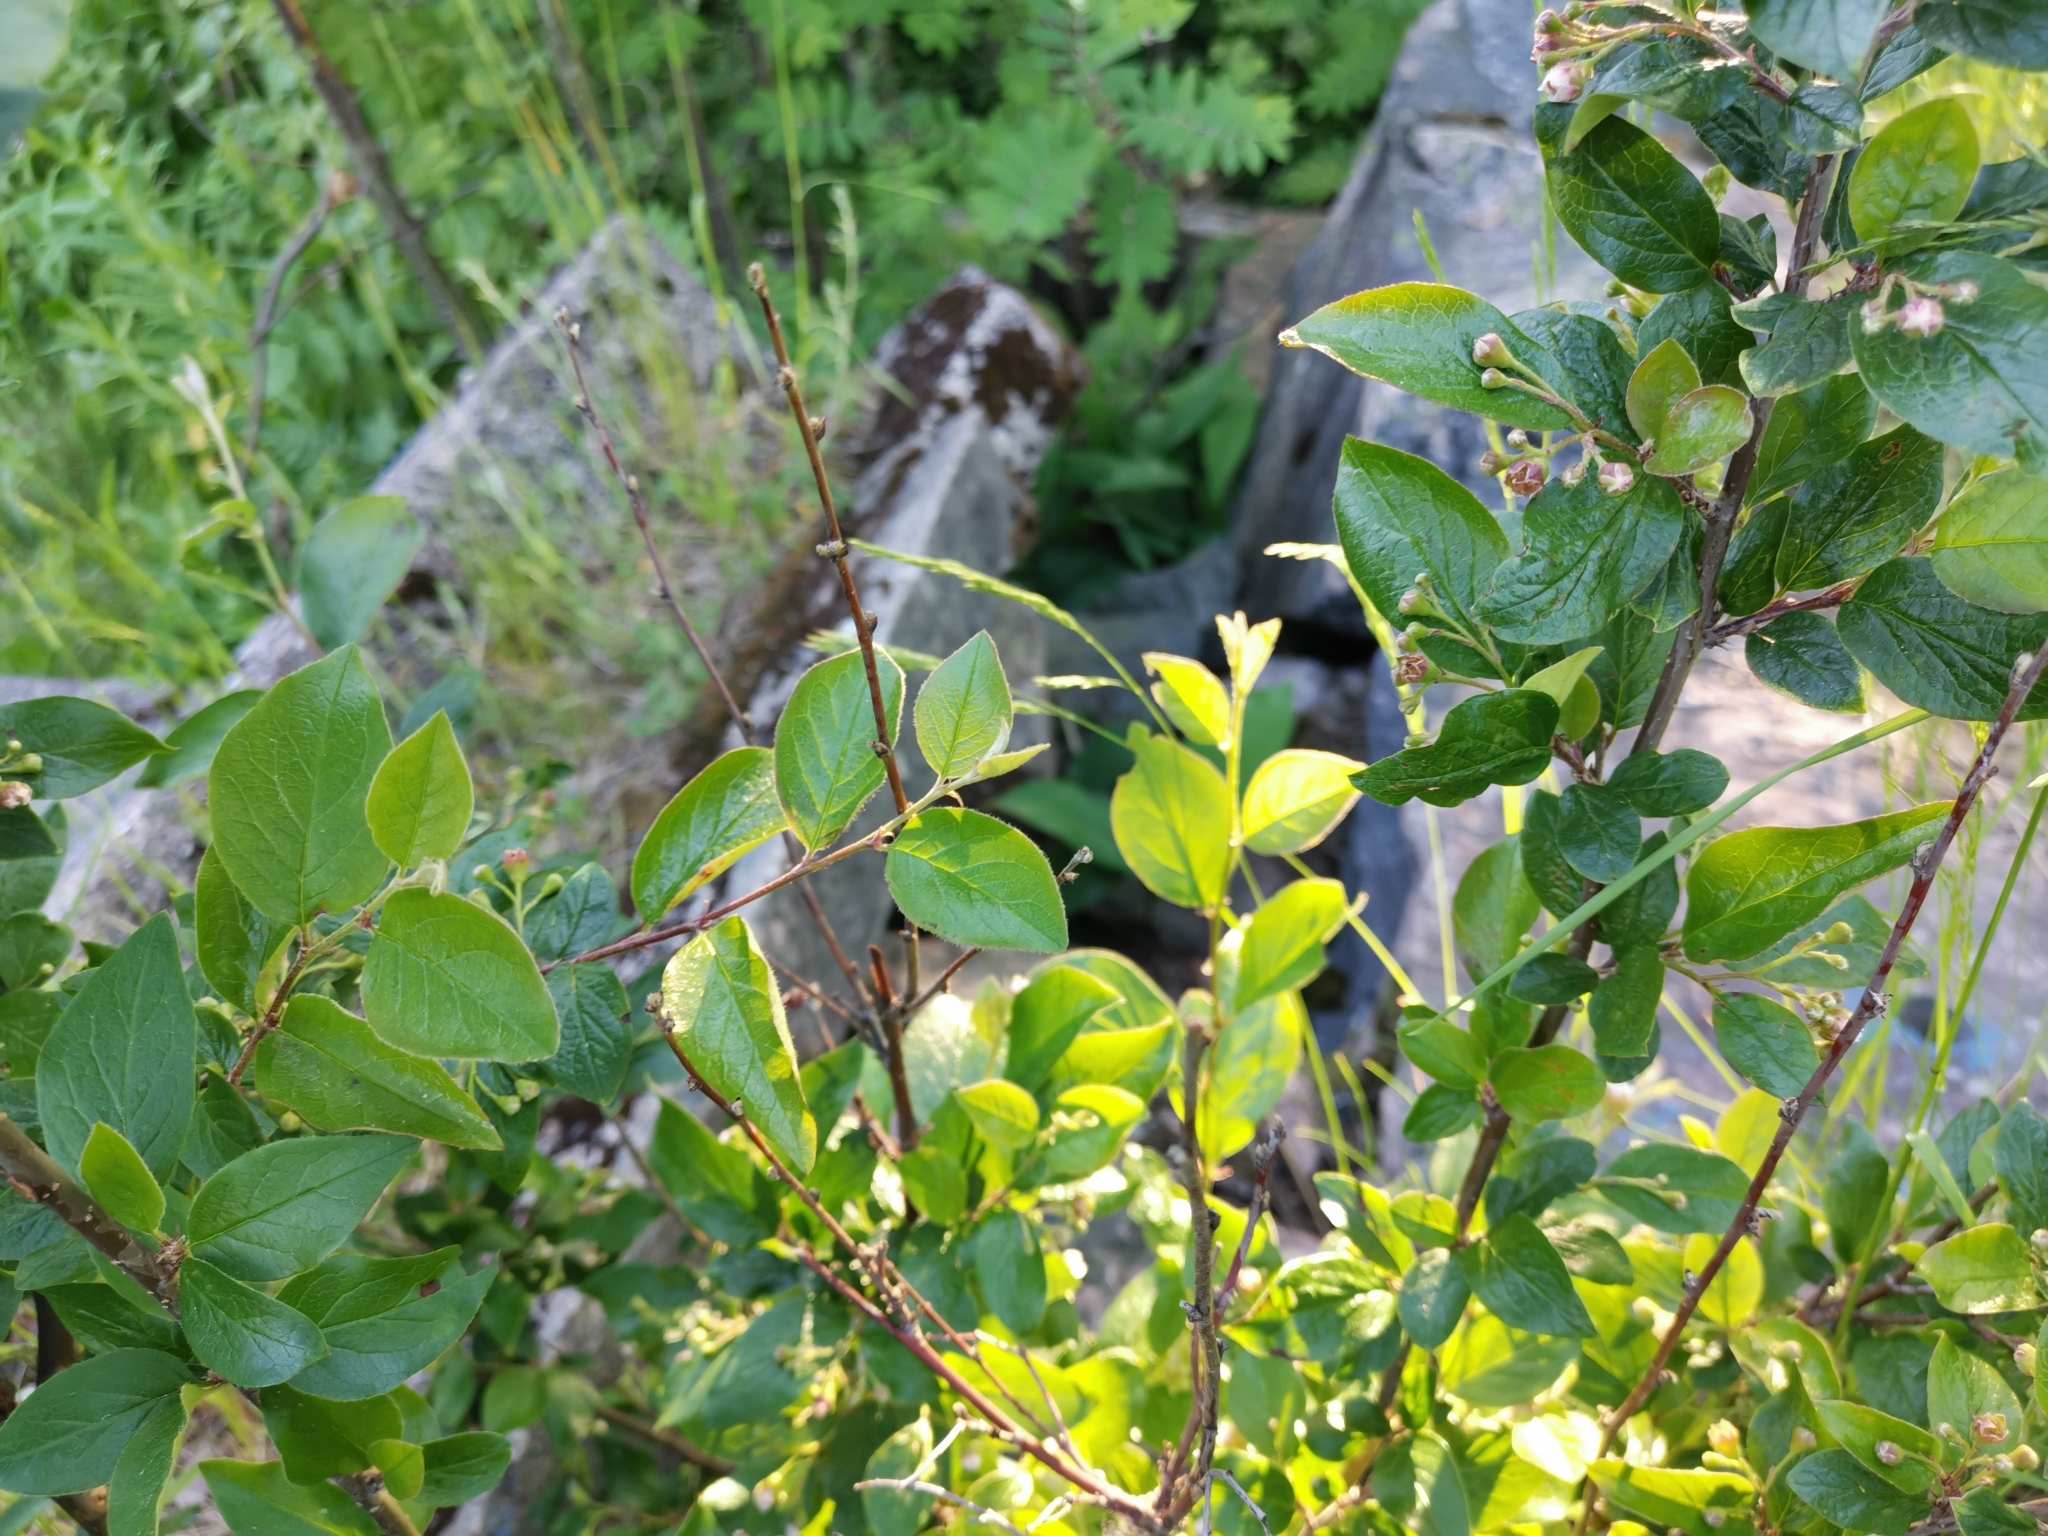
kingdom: Plantae
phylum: Tracheophyta
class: Magnoliopsida
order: Rosales
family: Rosaceae
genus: Cotoneaster
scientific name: Cotoneaster acutifolius
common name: Peking cotoneaster
